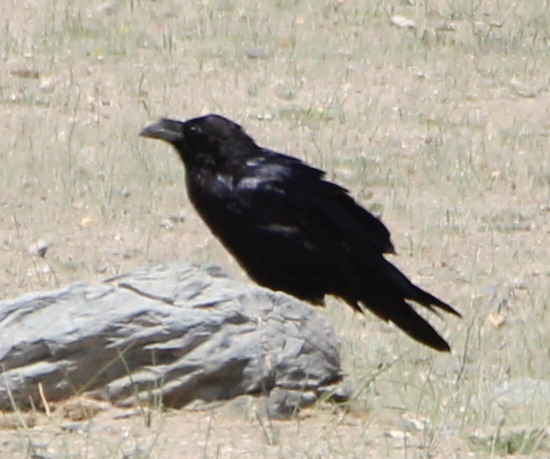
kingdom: Animalia
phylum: Chordata
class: Aves
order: Passeriformes
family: Corvidae
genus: Corvus
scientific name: Corvus corax
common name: Common raven
